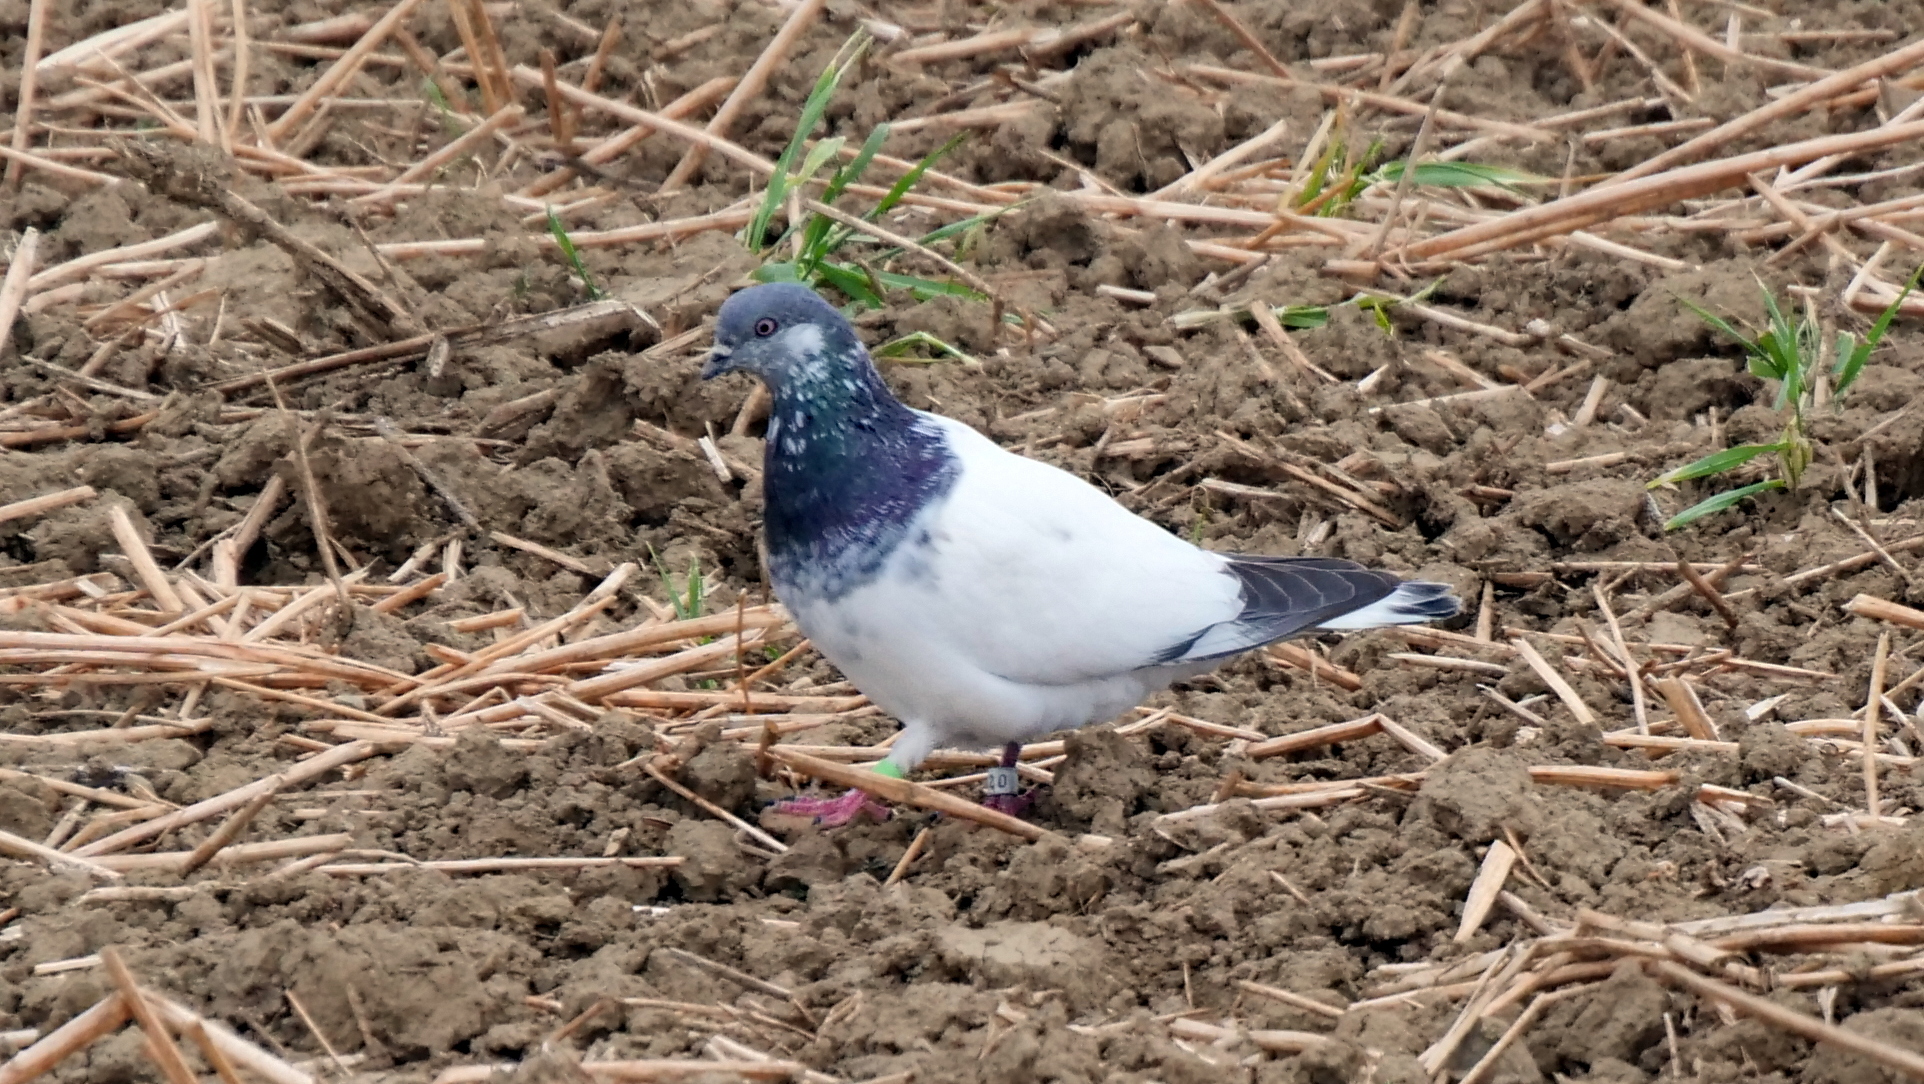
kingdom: Animalia
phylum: Chordata
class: Aves
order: Columbiformes
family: Columbidae
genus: Columba
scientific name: Columba livia
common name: Rock pigeon
